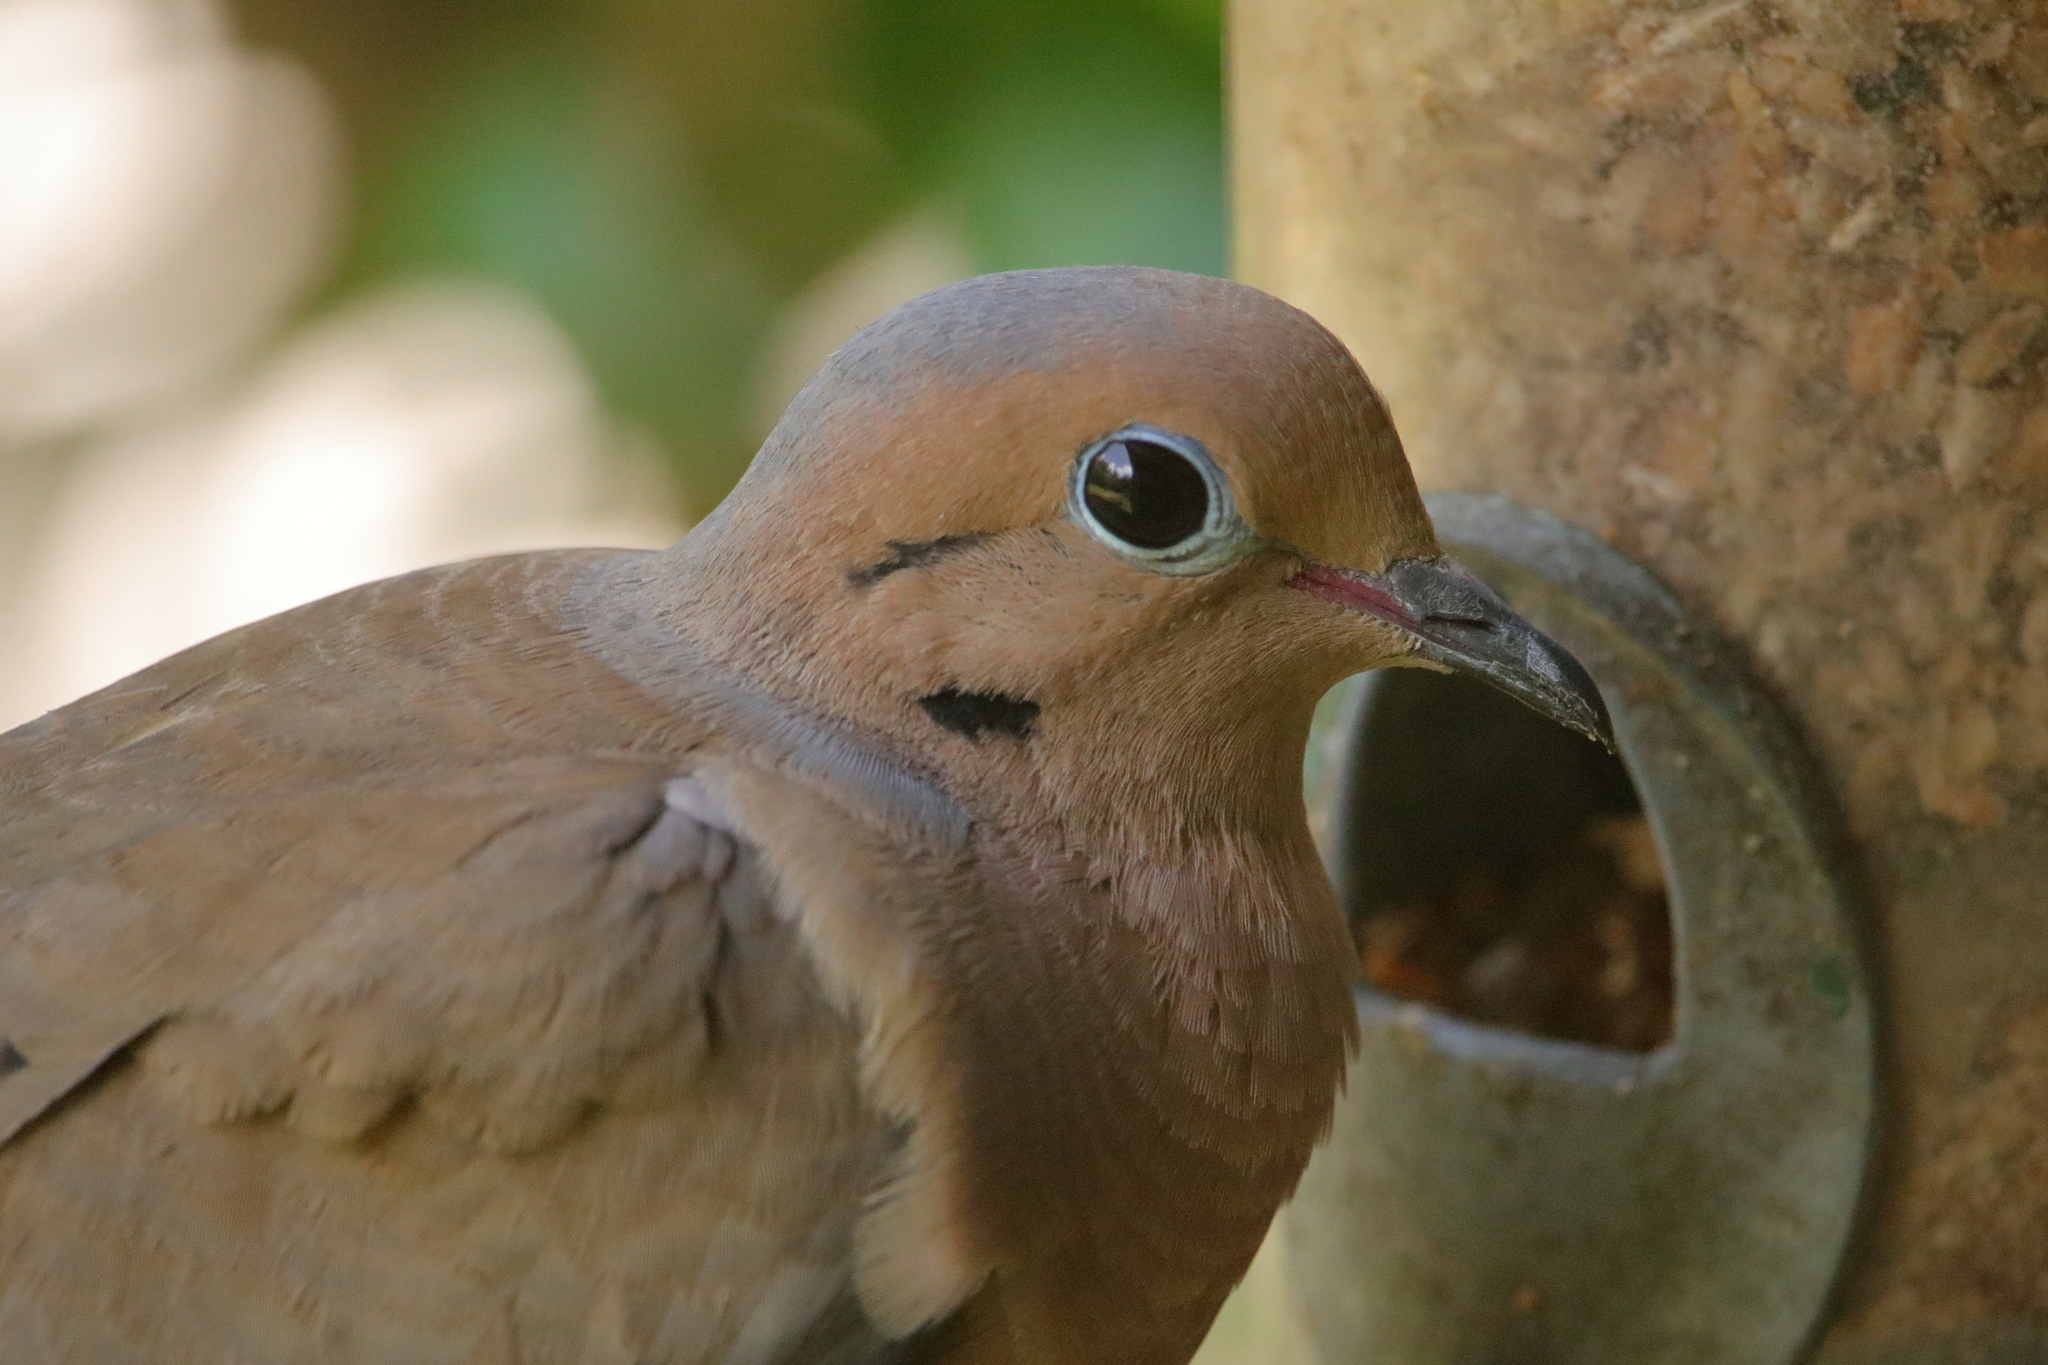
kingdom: Animalia
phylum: Chordata
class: Aves
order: Columbiformes
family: Columbidae
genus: Zenaida
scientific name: Zenaida macroura
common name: Mourning dove
